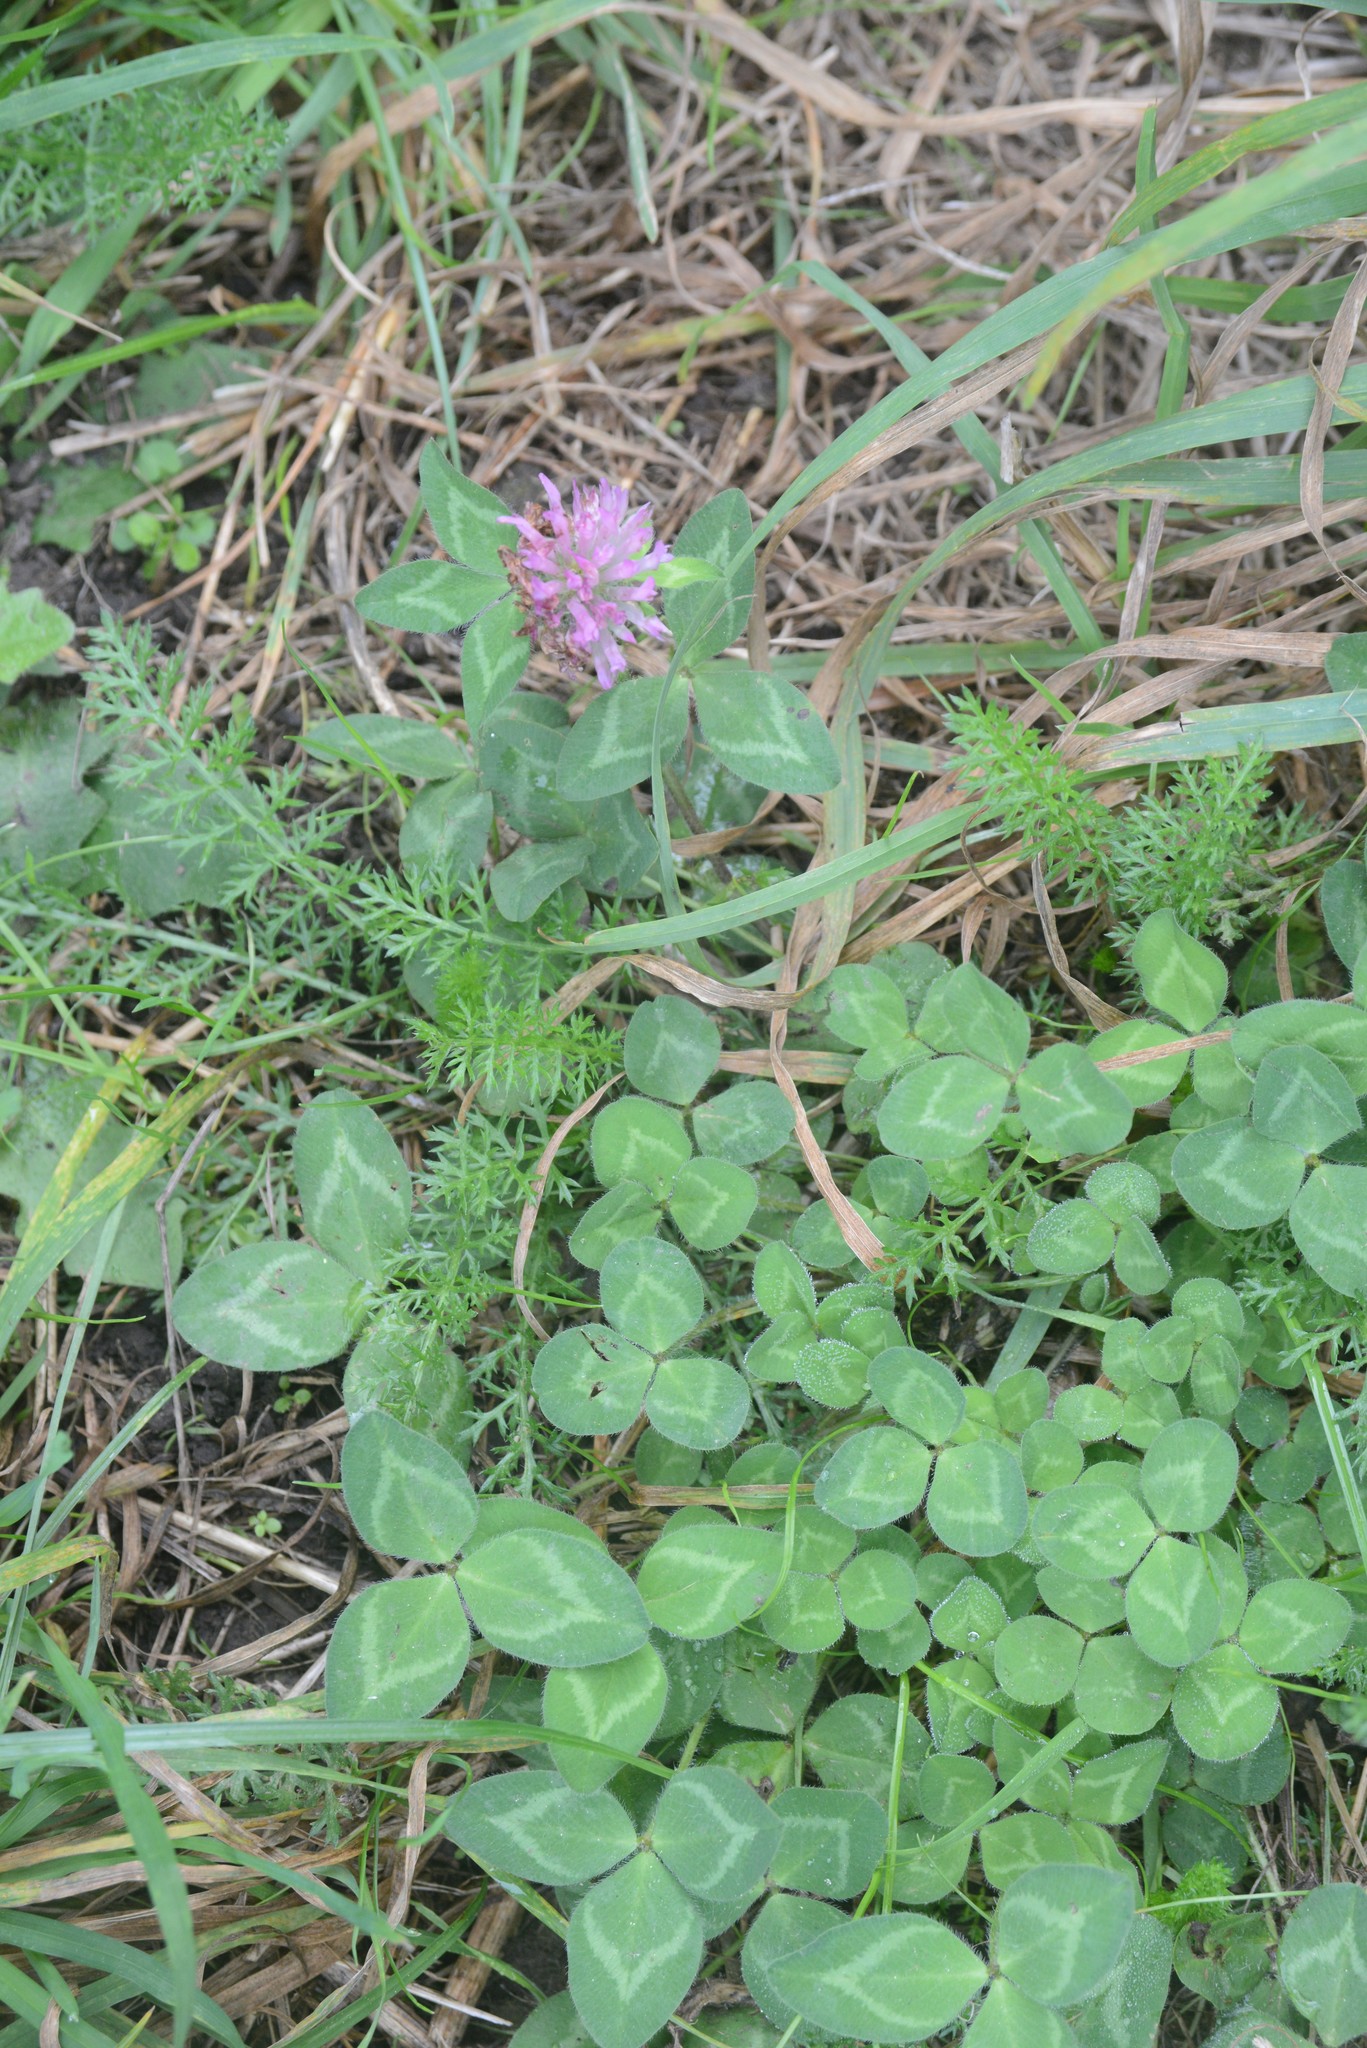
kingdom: Plantae
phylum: Tracheophyta
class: Magnoliopsida
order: Fabales
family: Fabaceae
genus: Trifolium
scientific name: Trifolium pratense
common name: Red clover
